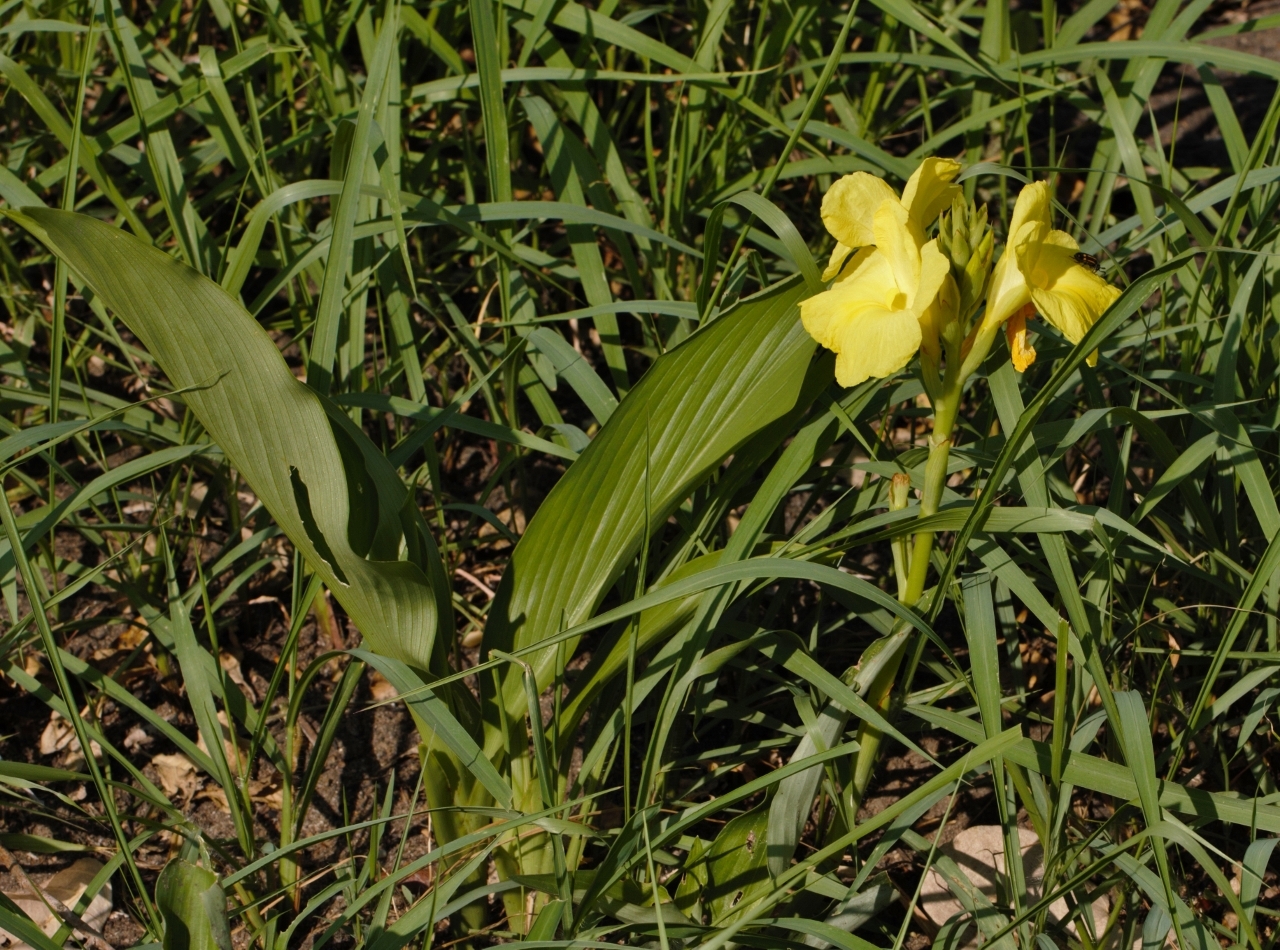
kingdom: Plantae
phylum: Tracheophyta
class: Liliopsida
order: Zingiberales
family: Zingiberaceae
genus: Siphonochilus
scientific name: Siphonochilus kirkii
